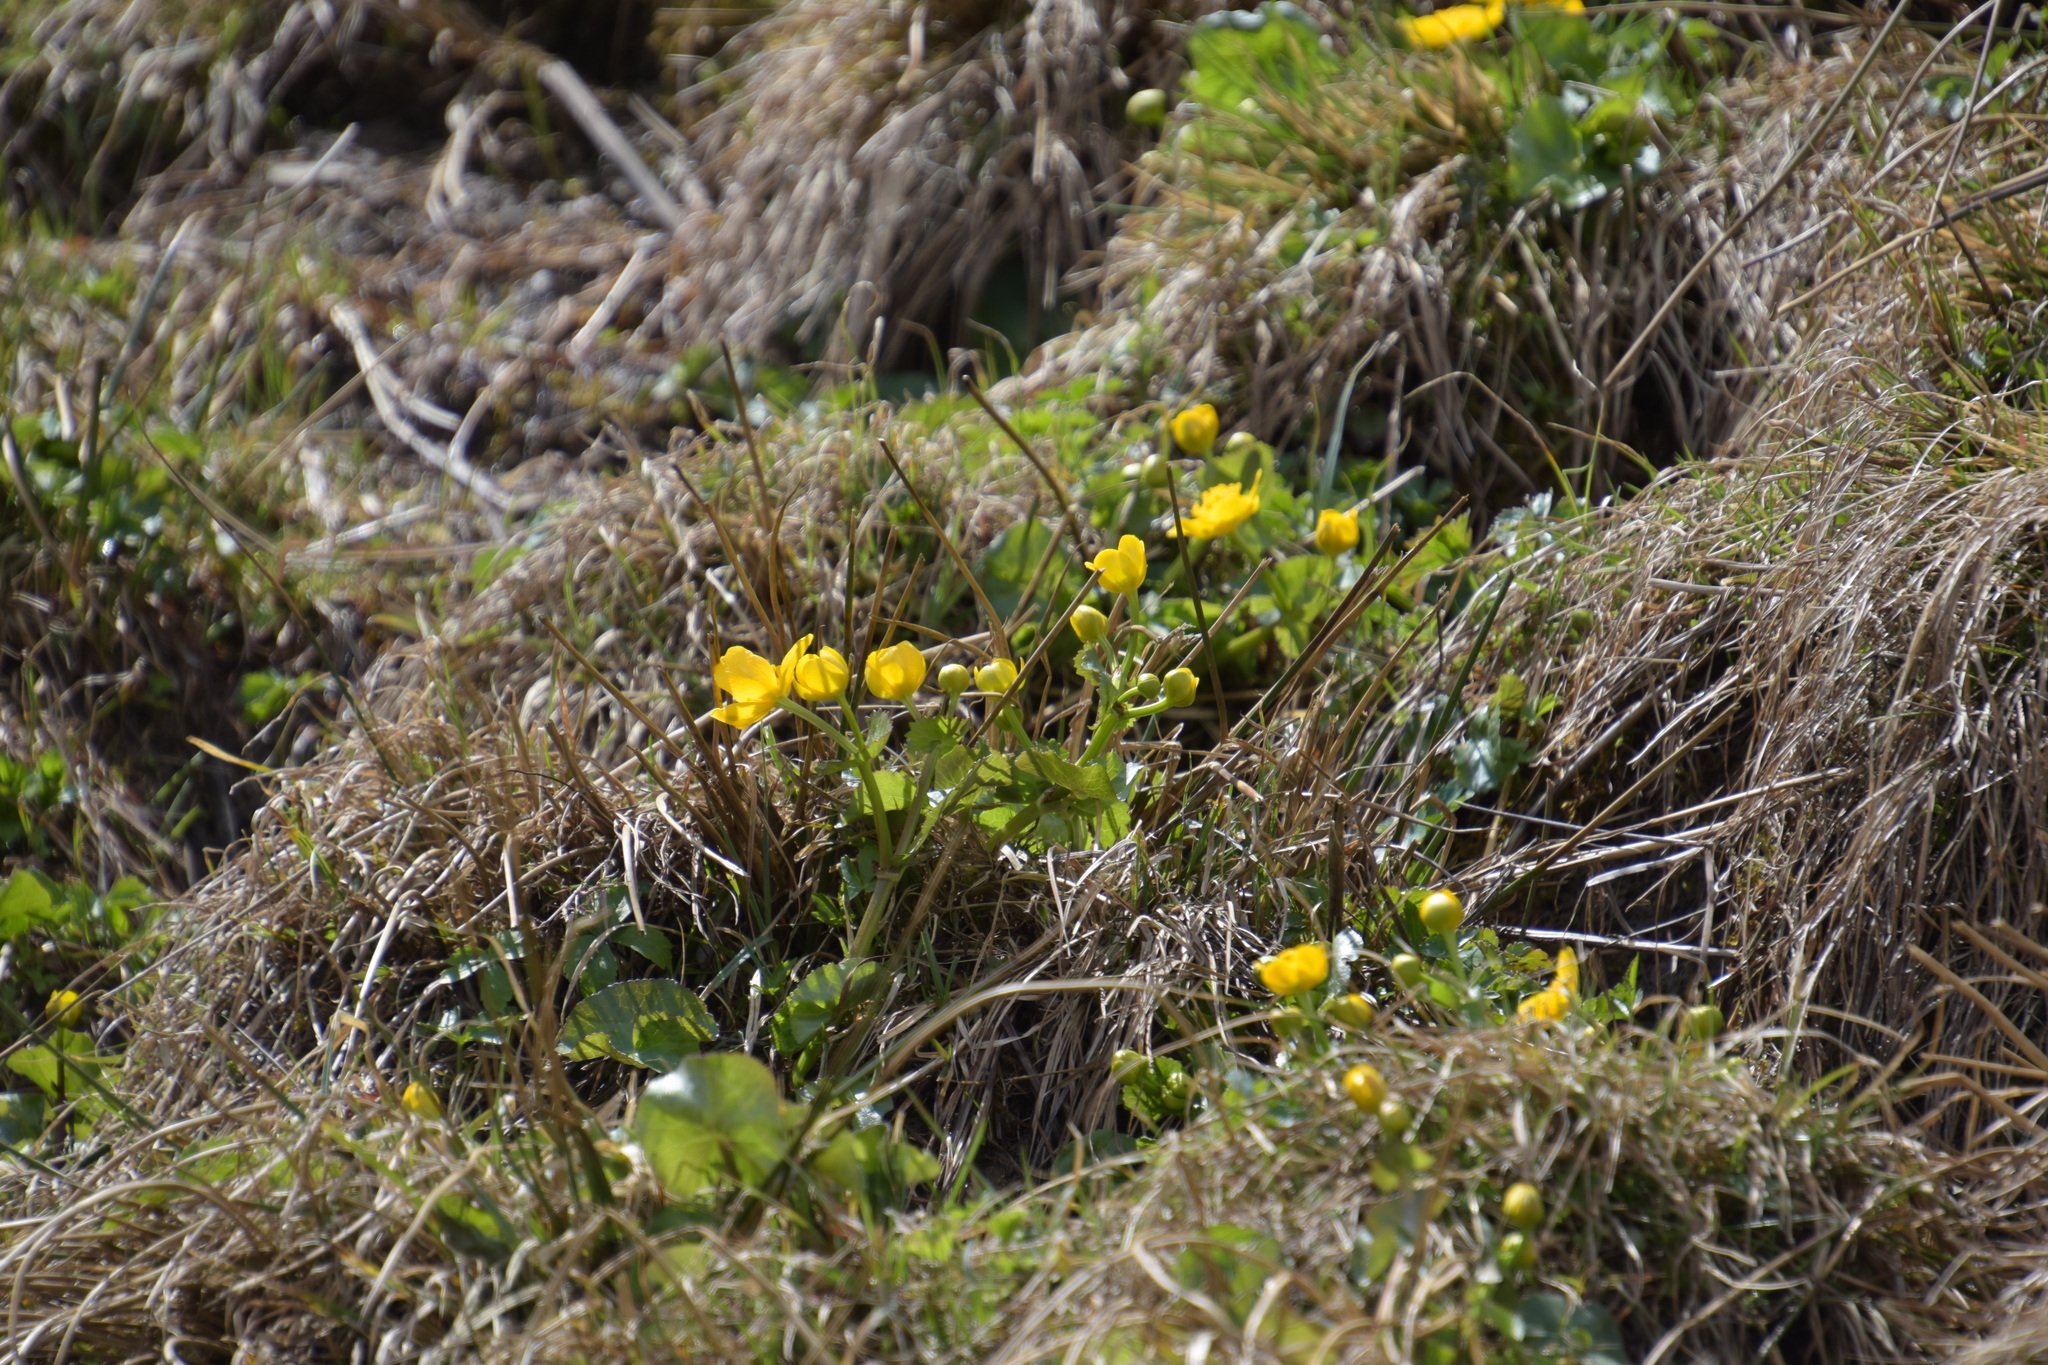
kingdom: Plantae
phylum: Tracheophyta
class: Magnoliopsida
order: Ranunculales
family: Ranunculaceae
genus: Caltha
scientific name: Caltha palustris
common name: Marsh marigold
